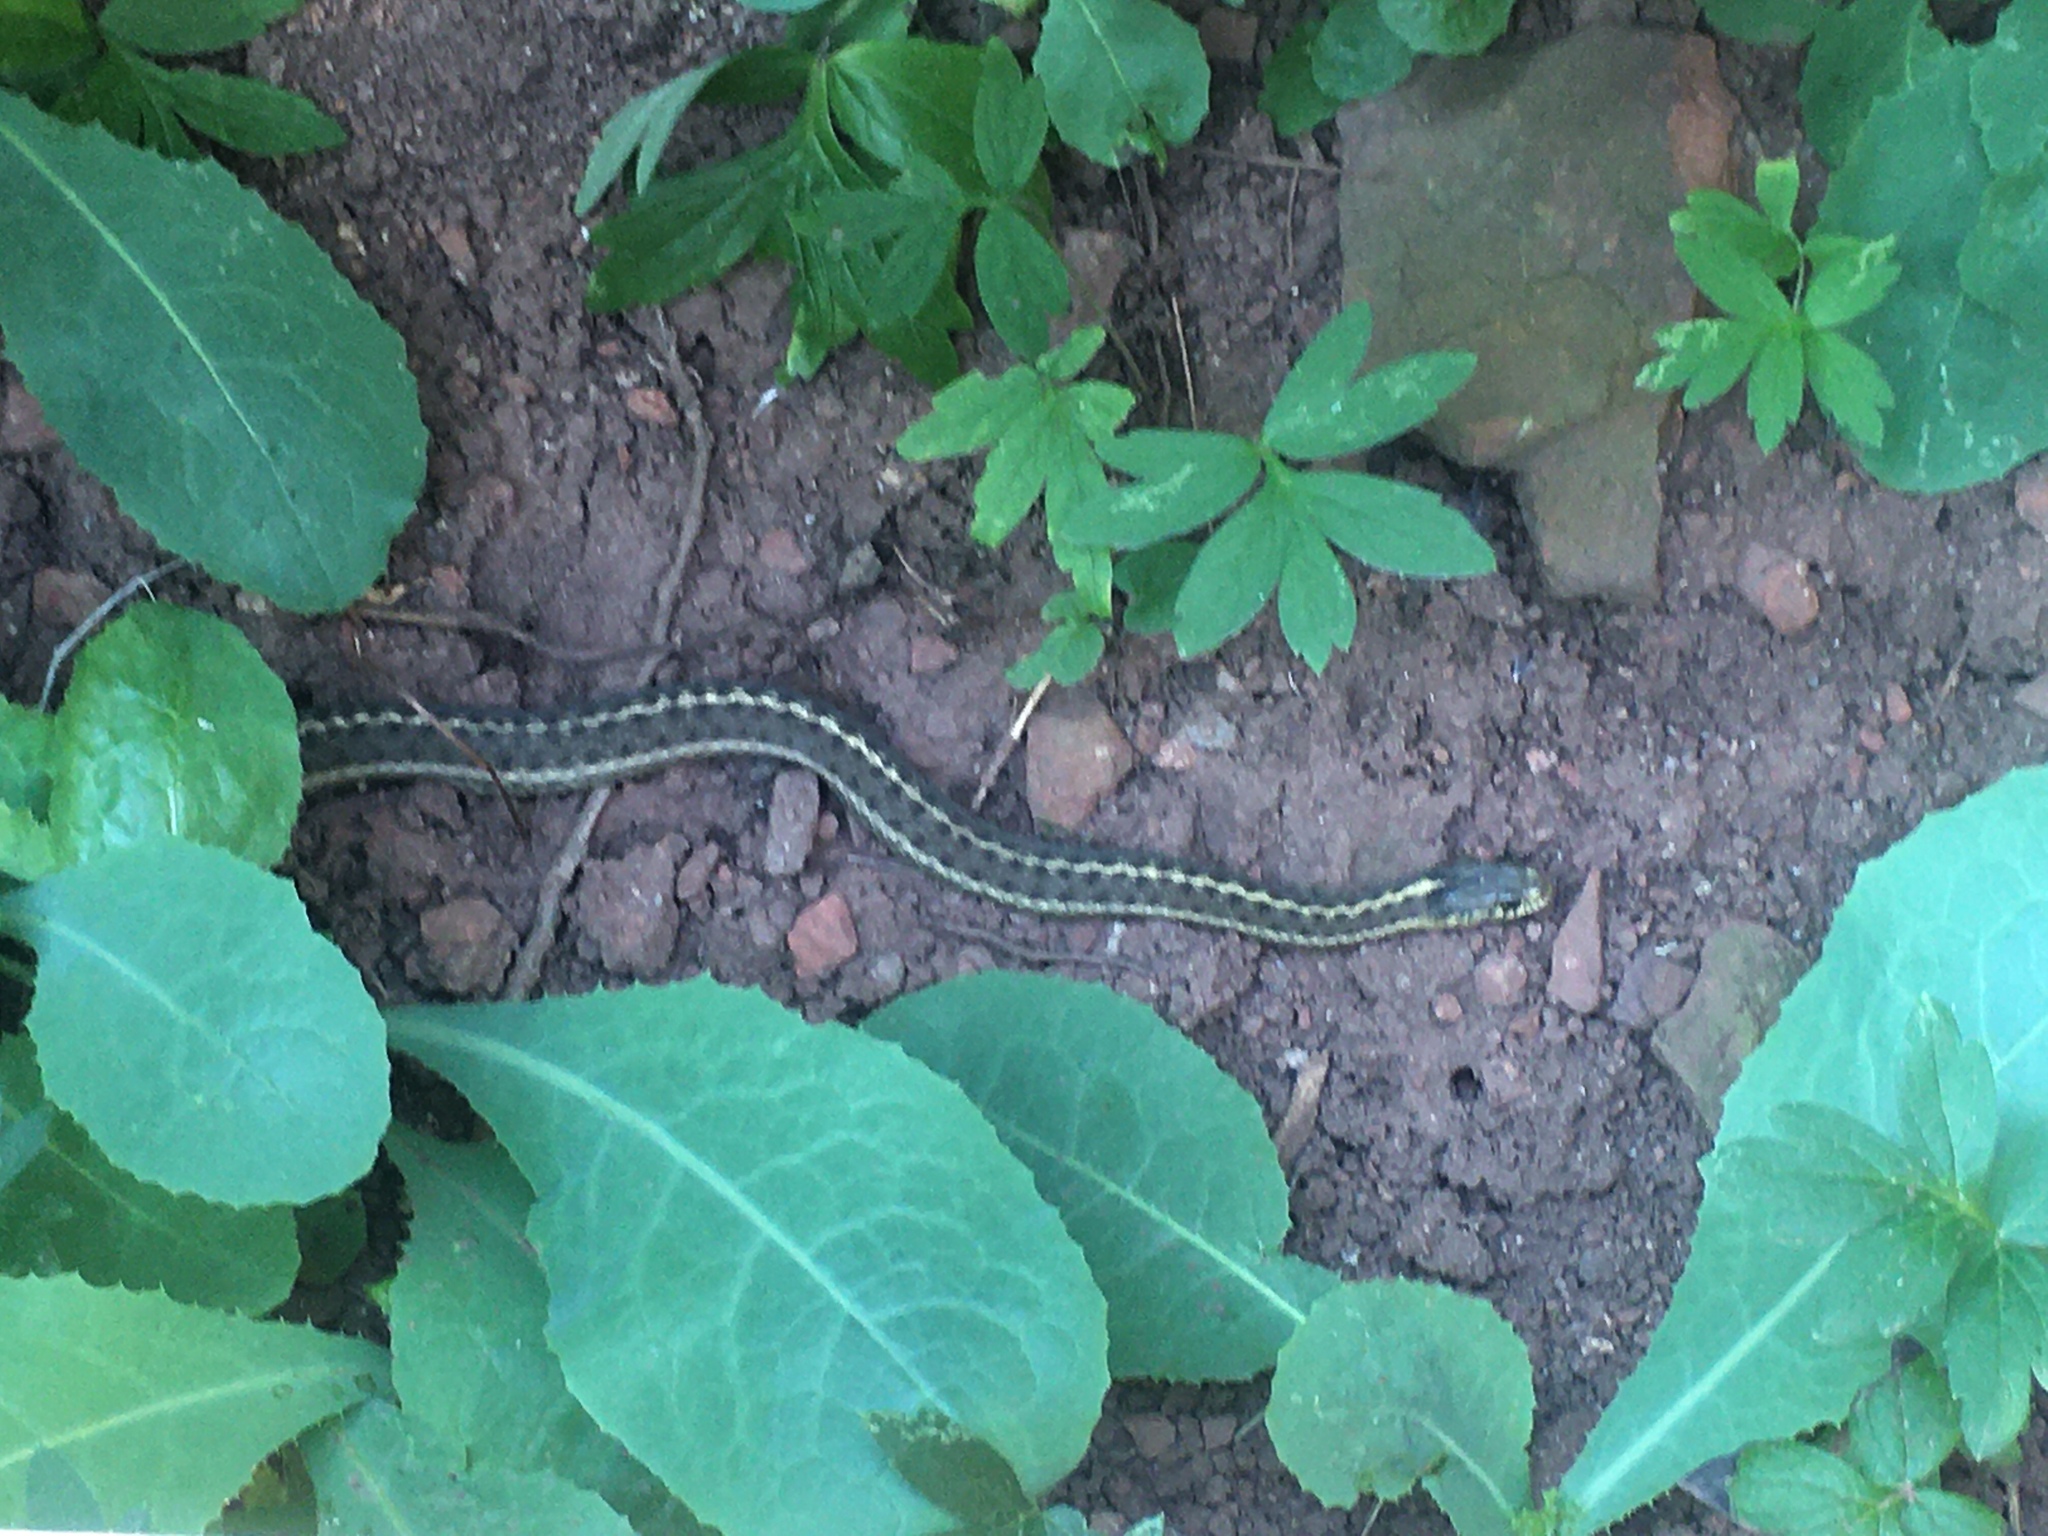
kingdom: Animalia
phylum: Chordata
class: Squamata
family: Colubridae
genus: Thamnophis
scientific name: Thamnophis elegans
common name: Western terrestrial garter snake
